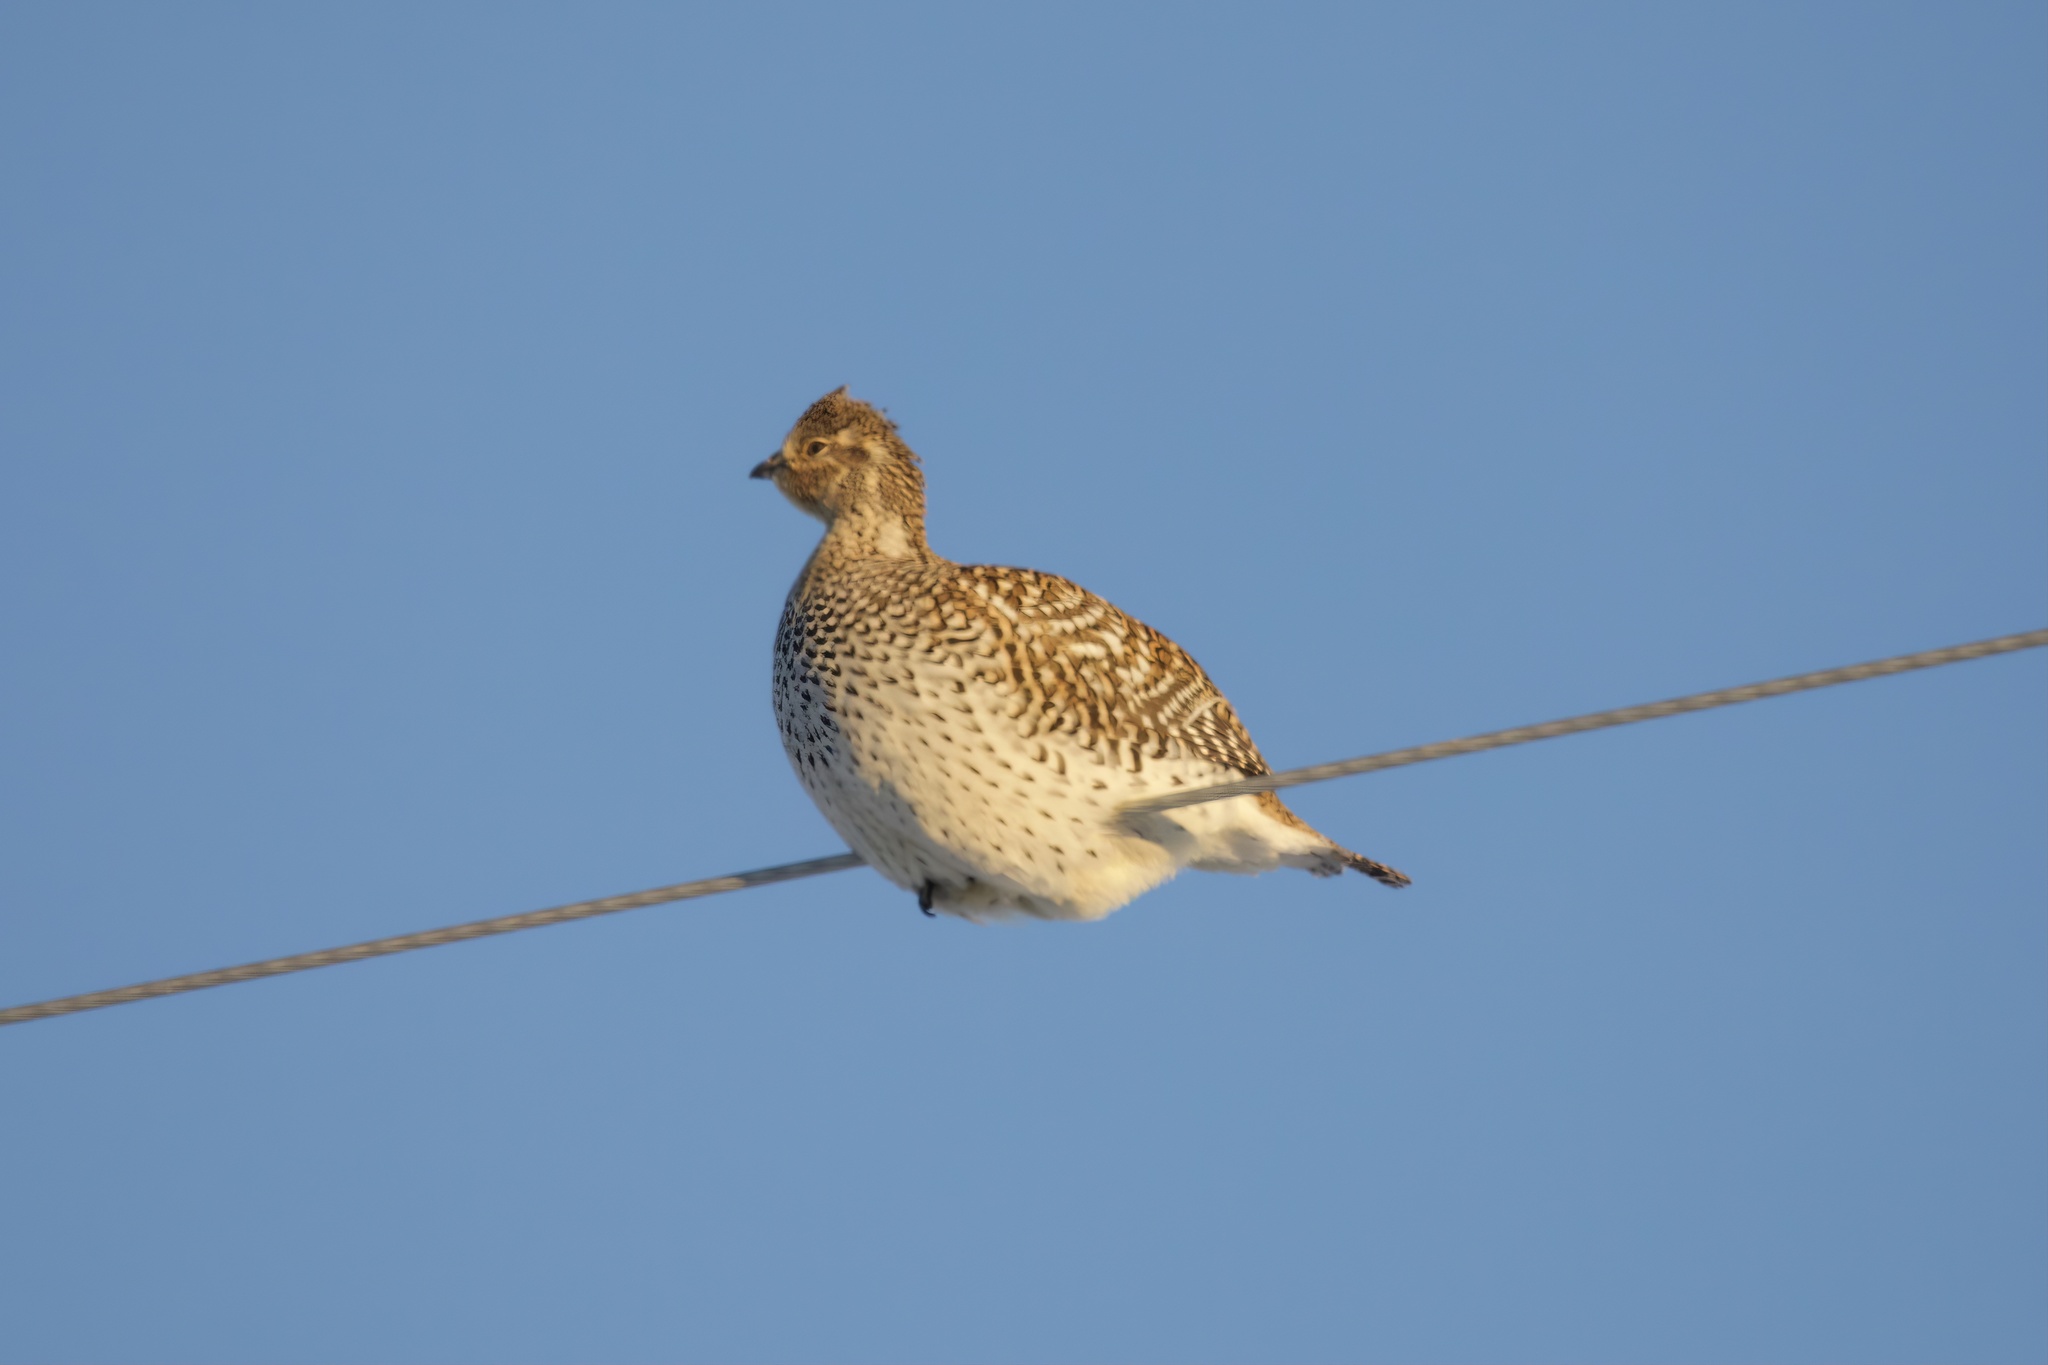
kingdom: Animalia
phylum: Chordata
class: Aves
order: Galliformes
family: Phasianidae
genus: Tympanuchus
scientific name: Tympanuchus phasianellus
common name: Sharp-tailed grouse
